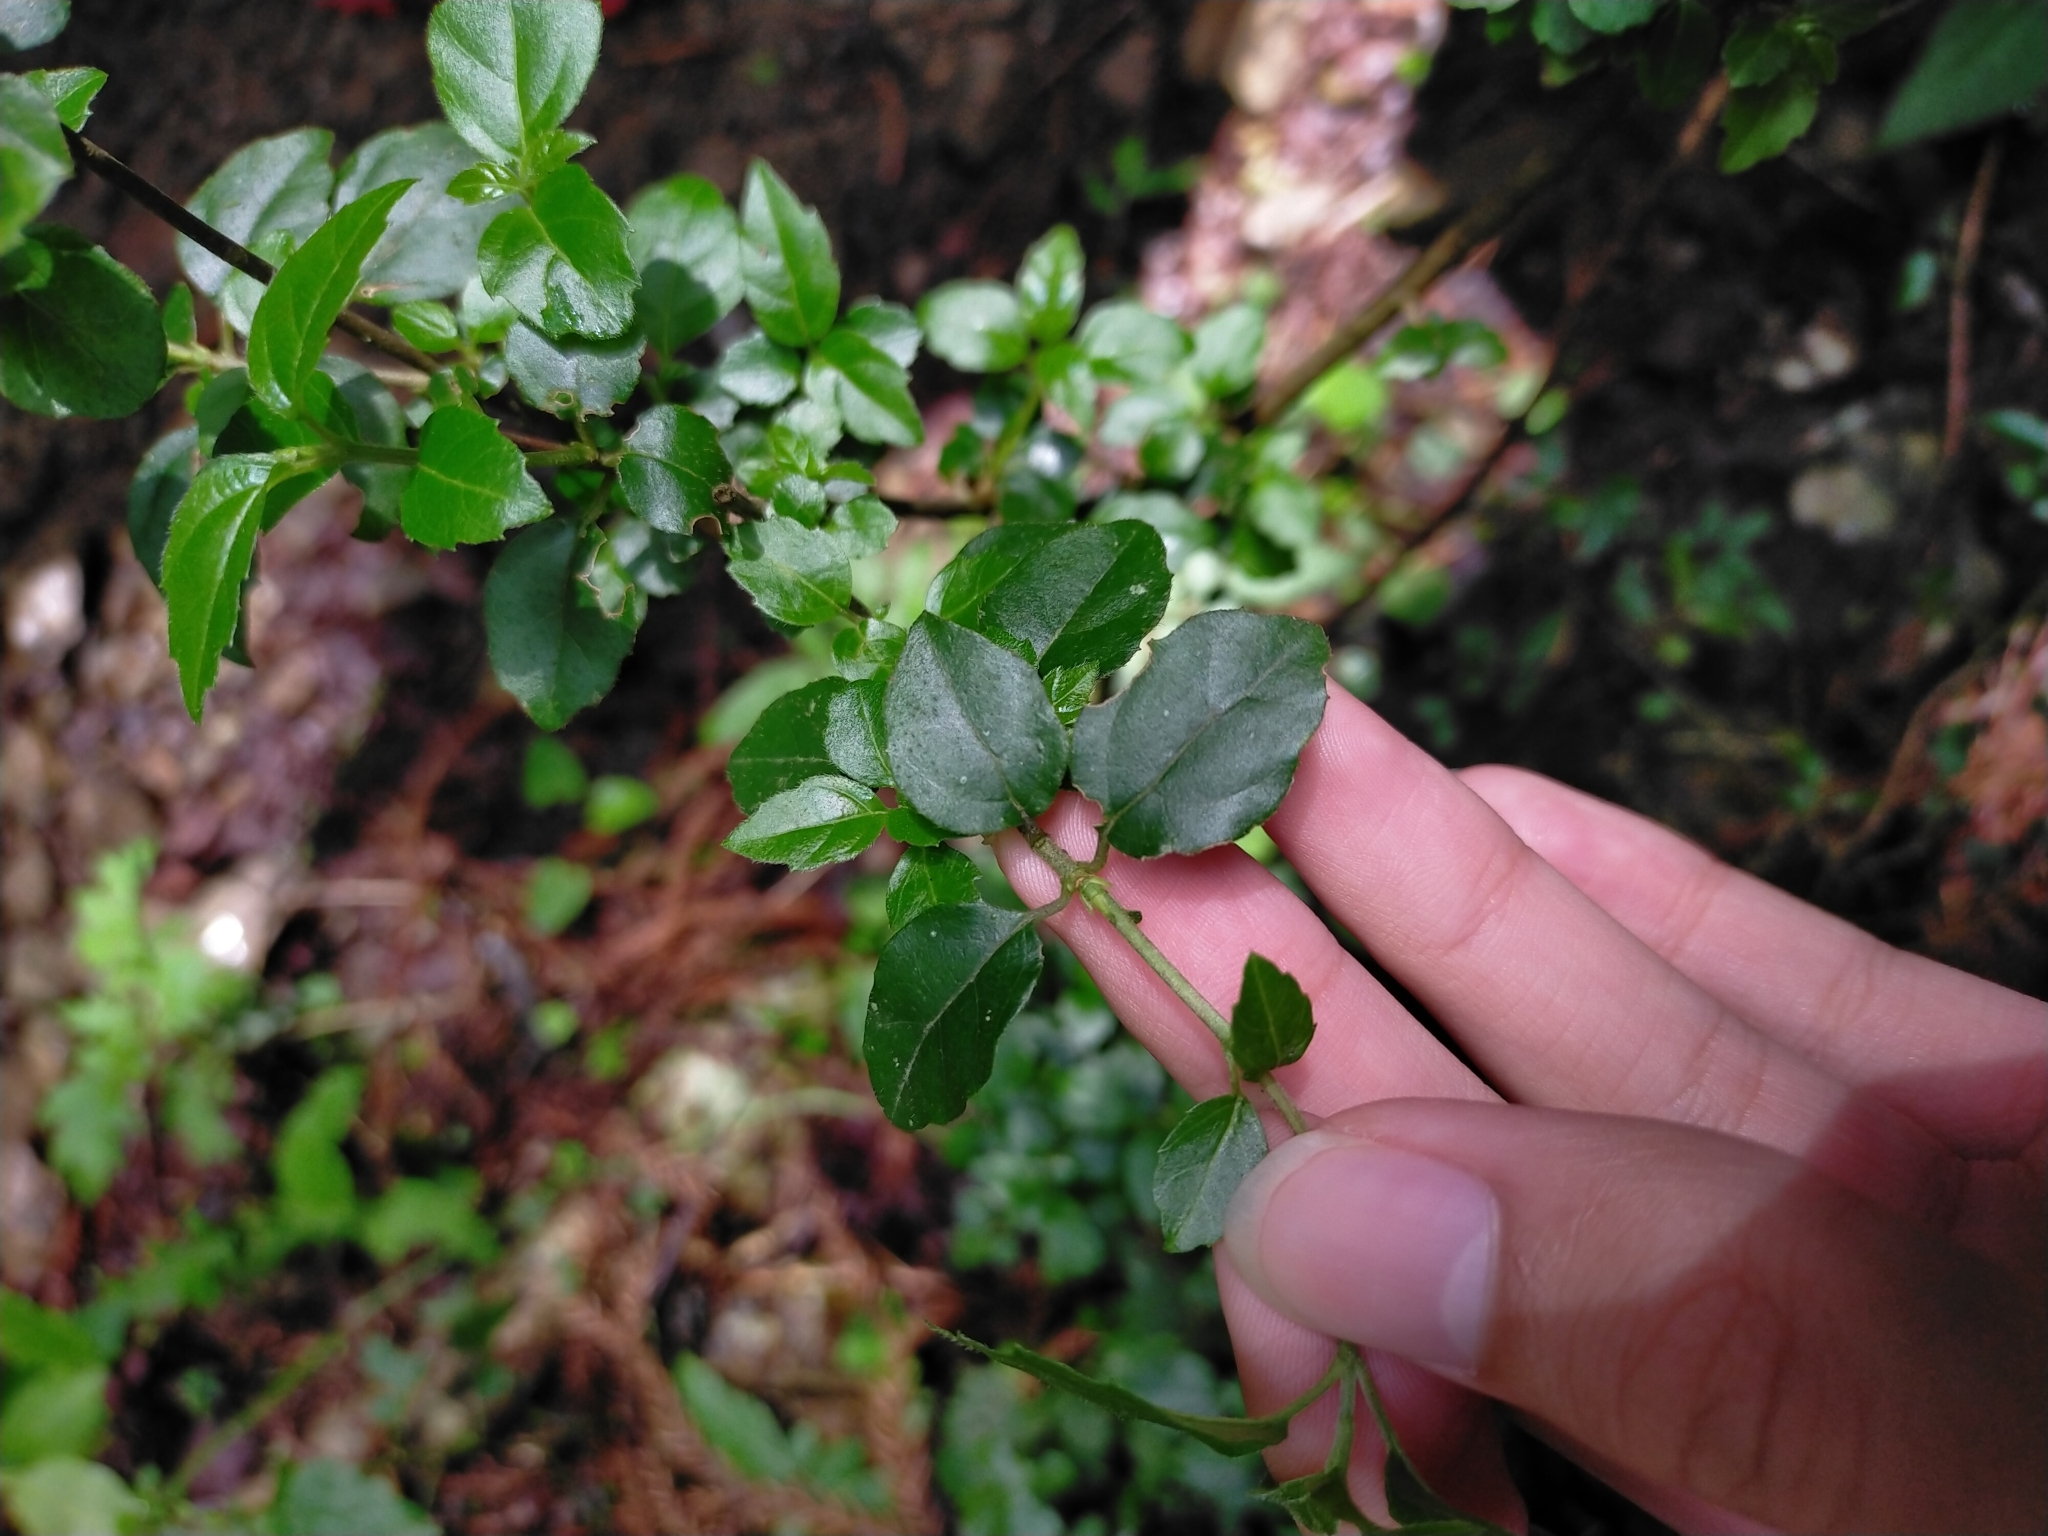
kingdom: Plantae
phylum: Tracheophyta
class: Magnoliopsida
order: Dipsacales
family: Viburnaceae
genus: Viburnum
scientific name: Viburnum foetidum
